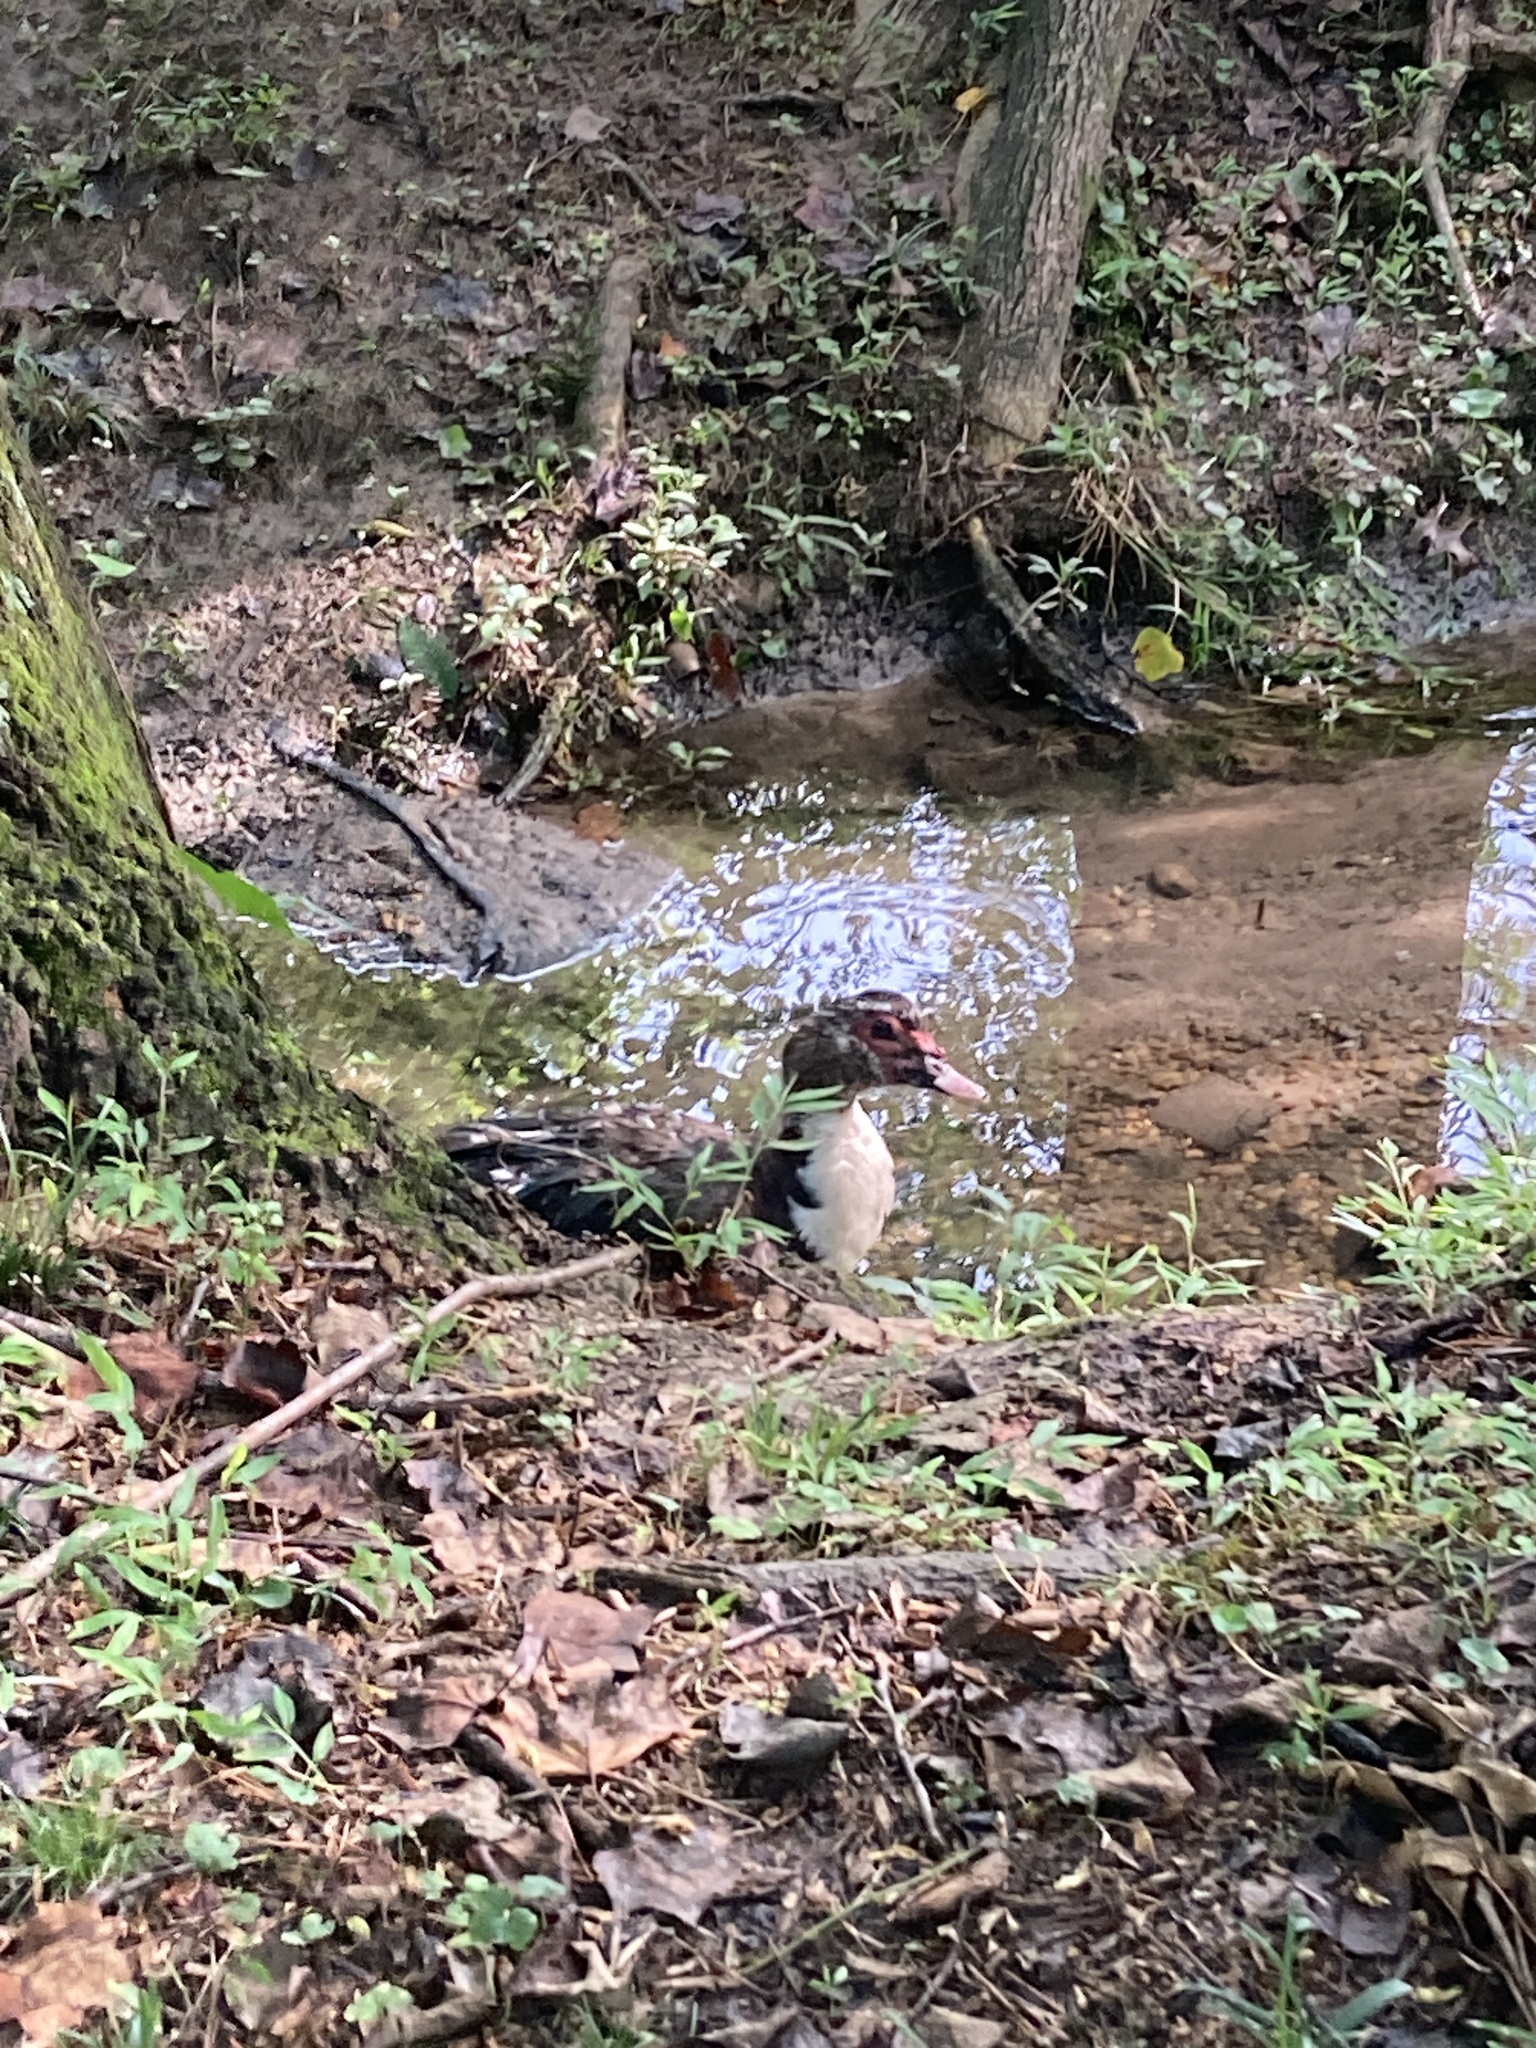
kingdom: Animalia
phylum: Chordata
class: Aves
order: Anseriformes
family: Anatidae
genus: Cairina
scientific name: Cairina moschata
